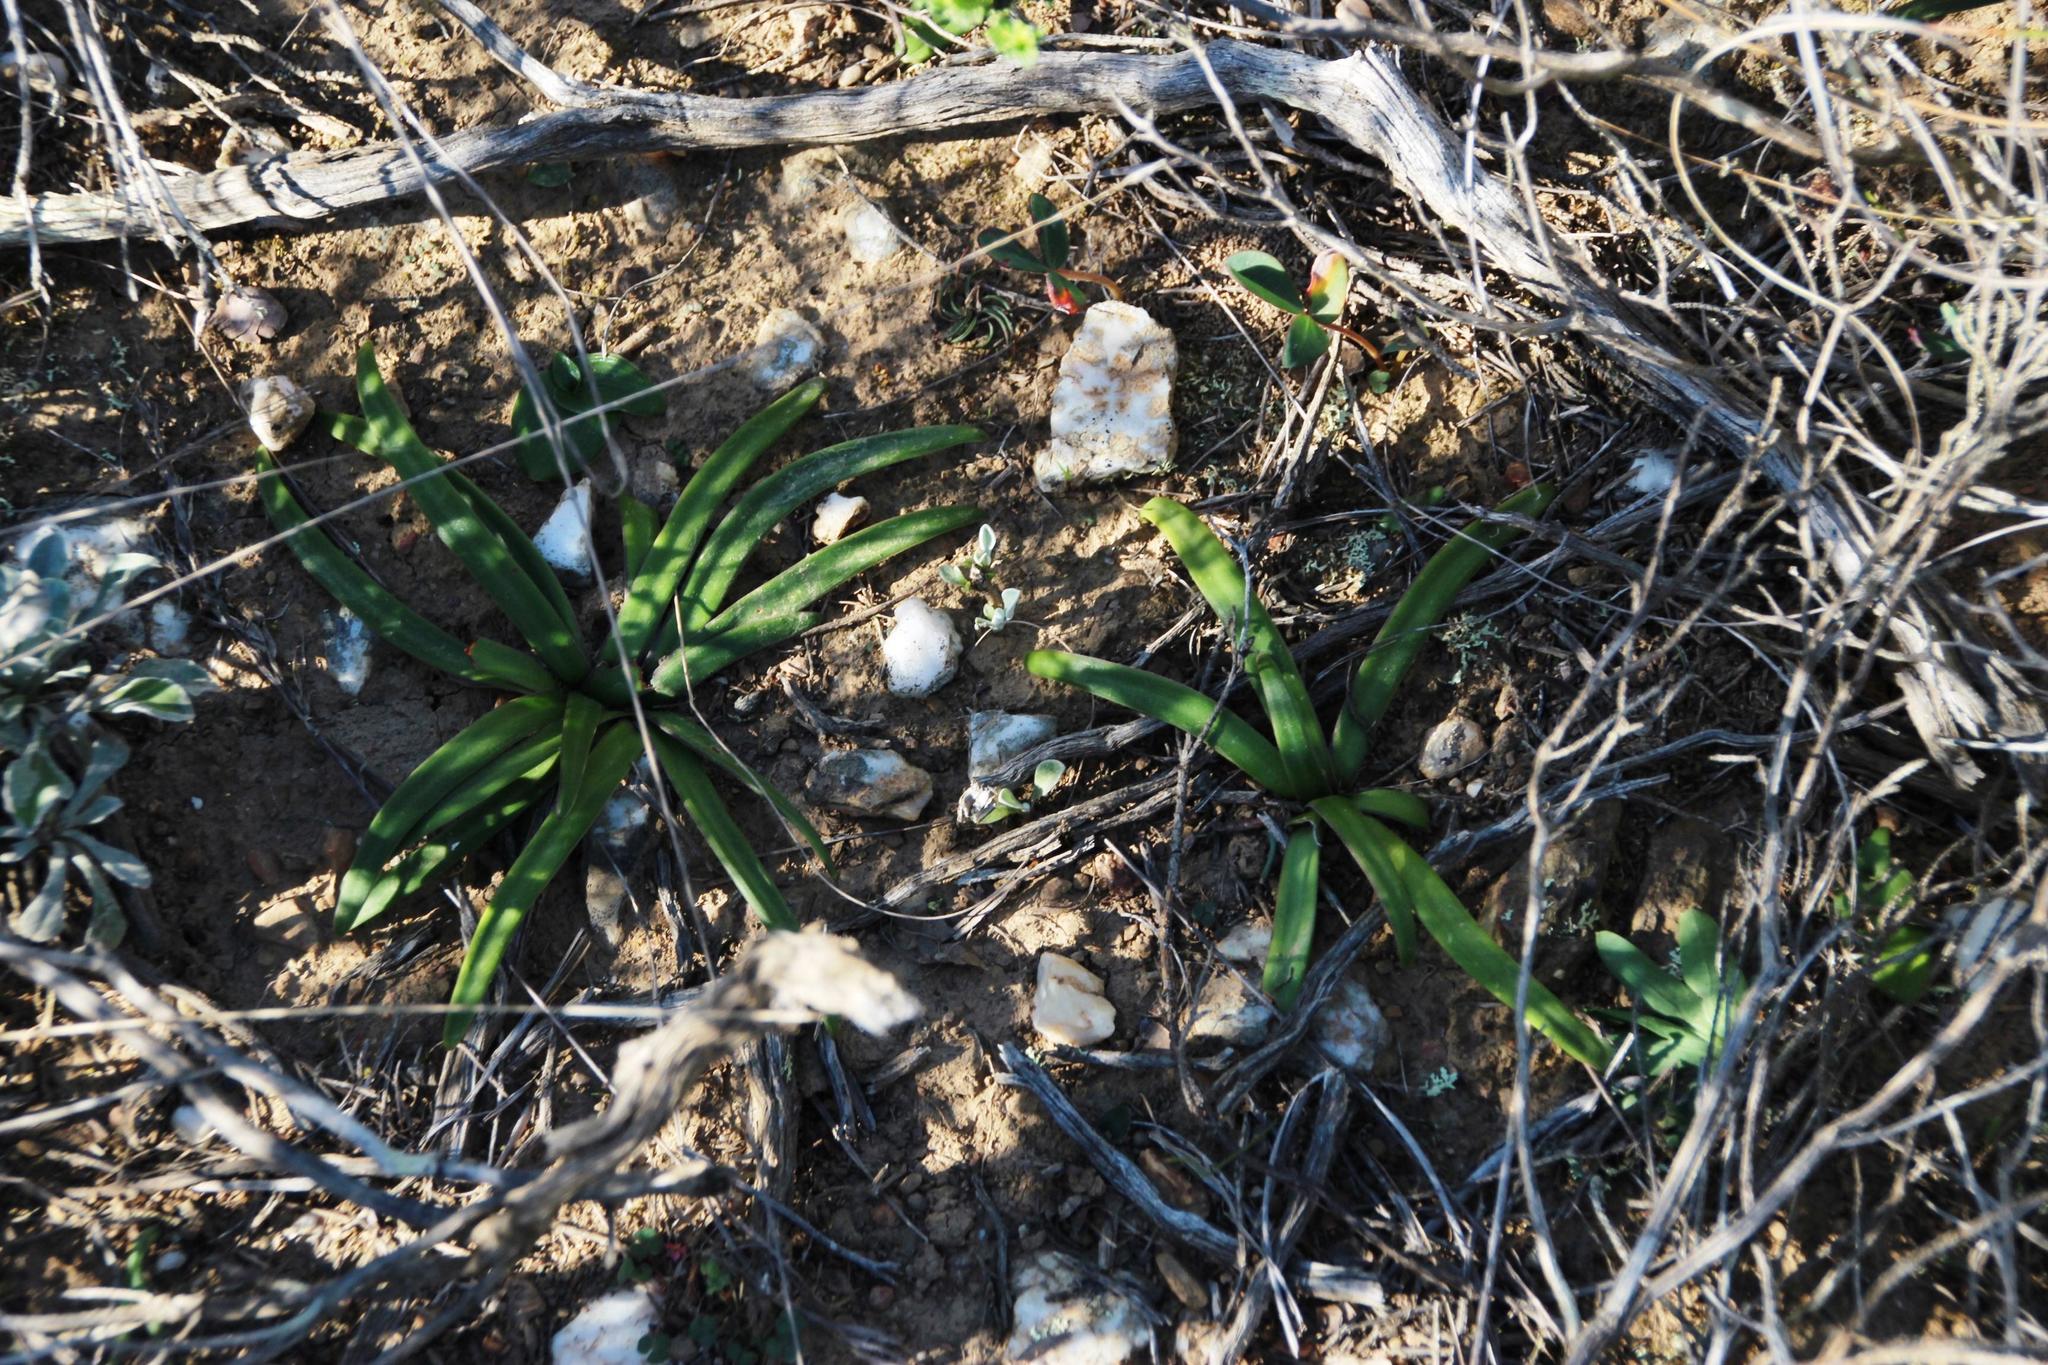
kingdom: Plantae
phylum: Tracheophyta
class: Liliopsida
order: Asparagales
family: Amaryllidaceae
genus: Tulbaghia
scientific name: Tulbaghia capensis
